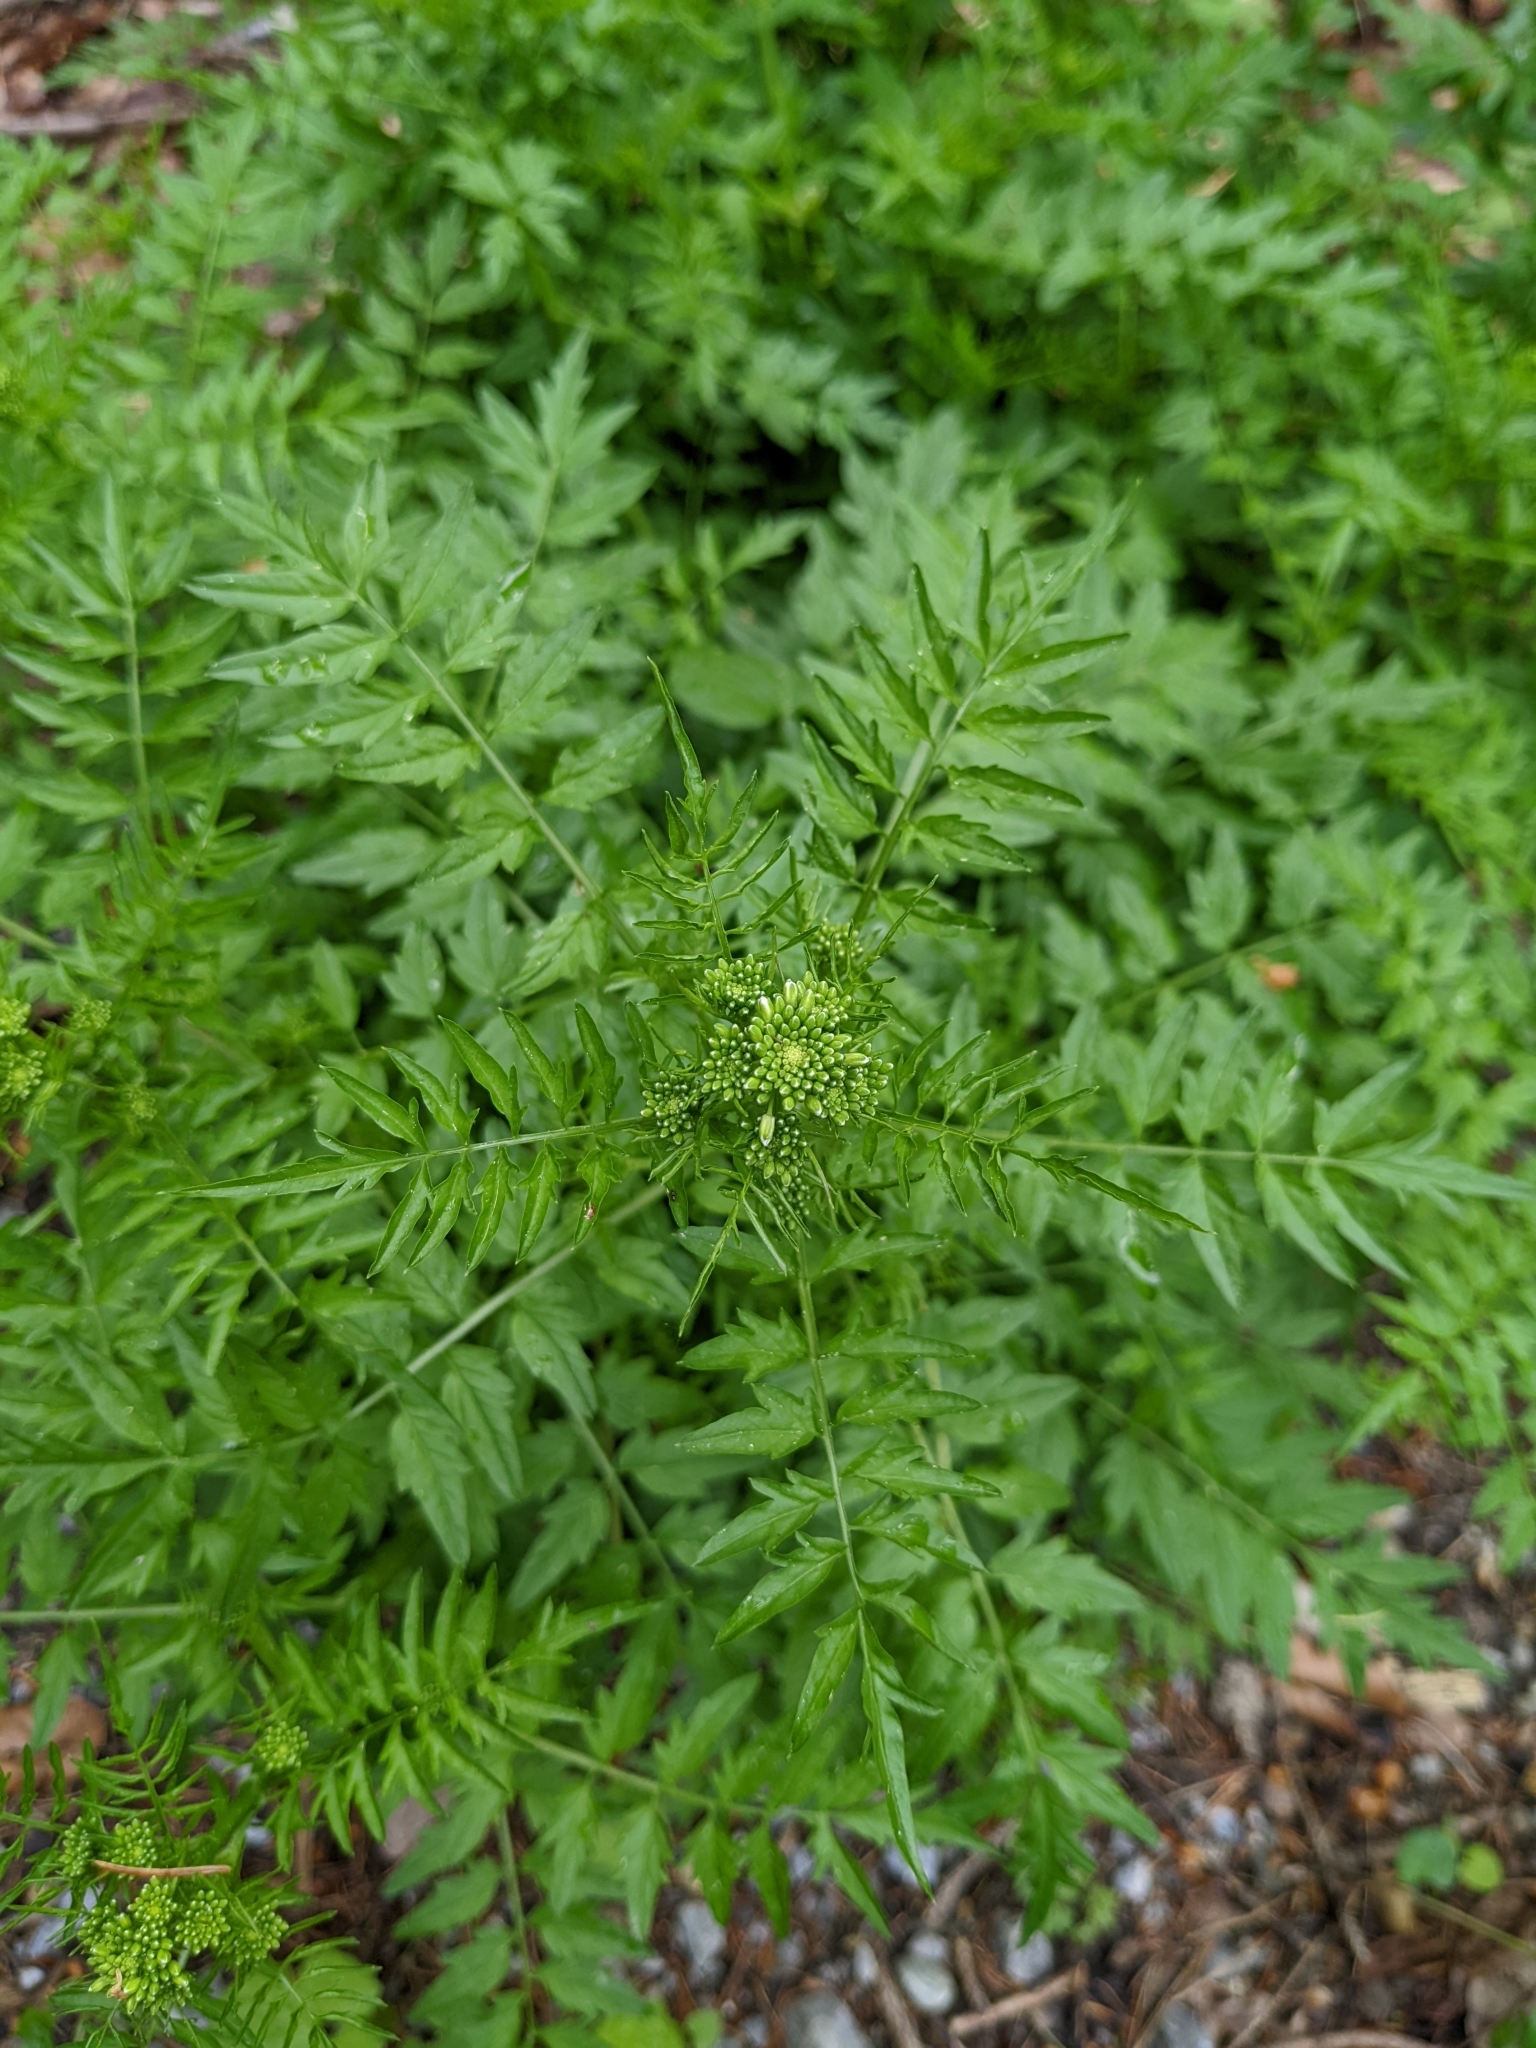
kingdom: Plantae
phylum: Tracheophyta
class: Magnoliopsida
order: Brassicales
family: Brassicaceae
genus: Cardamine
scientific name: Cardamine impatiens
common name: Narrow-leaved bitter-cress
